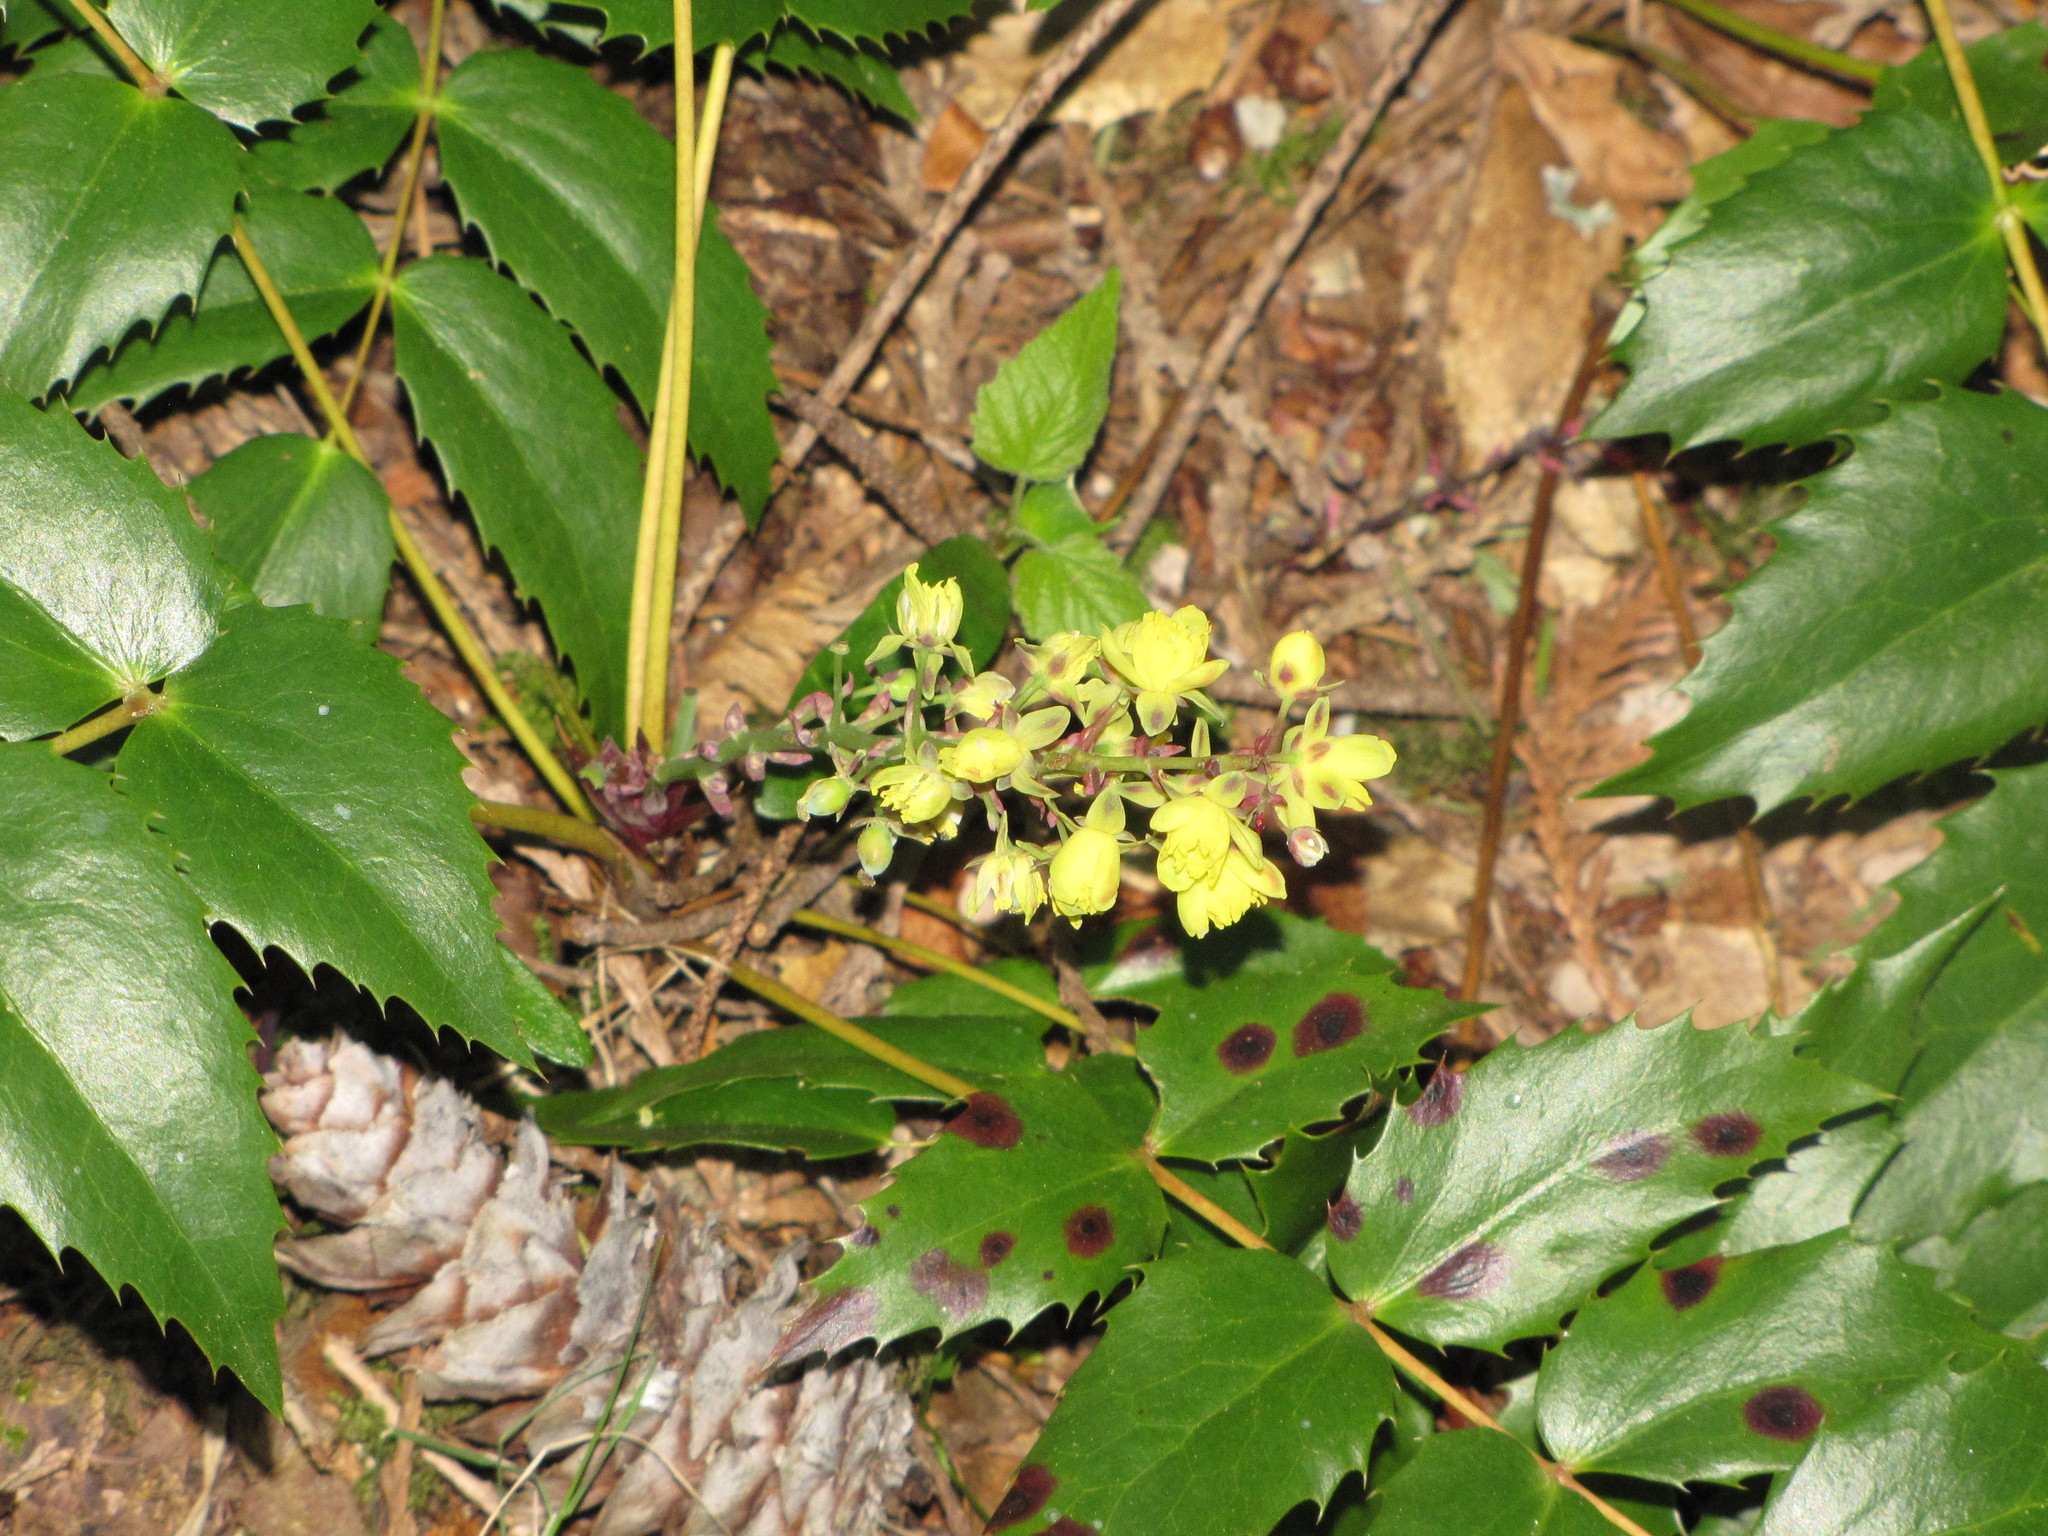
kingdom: Plantae
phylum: Tracheophyta
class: Magnoliopsida
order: Ranunculales
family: Berberidaceae
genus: Mahonia
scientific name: Mahonia nervosa
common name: Cascade oregon-grape
